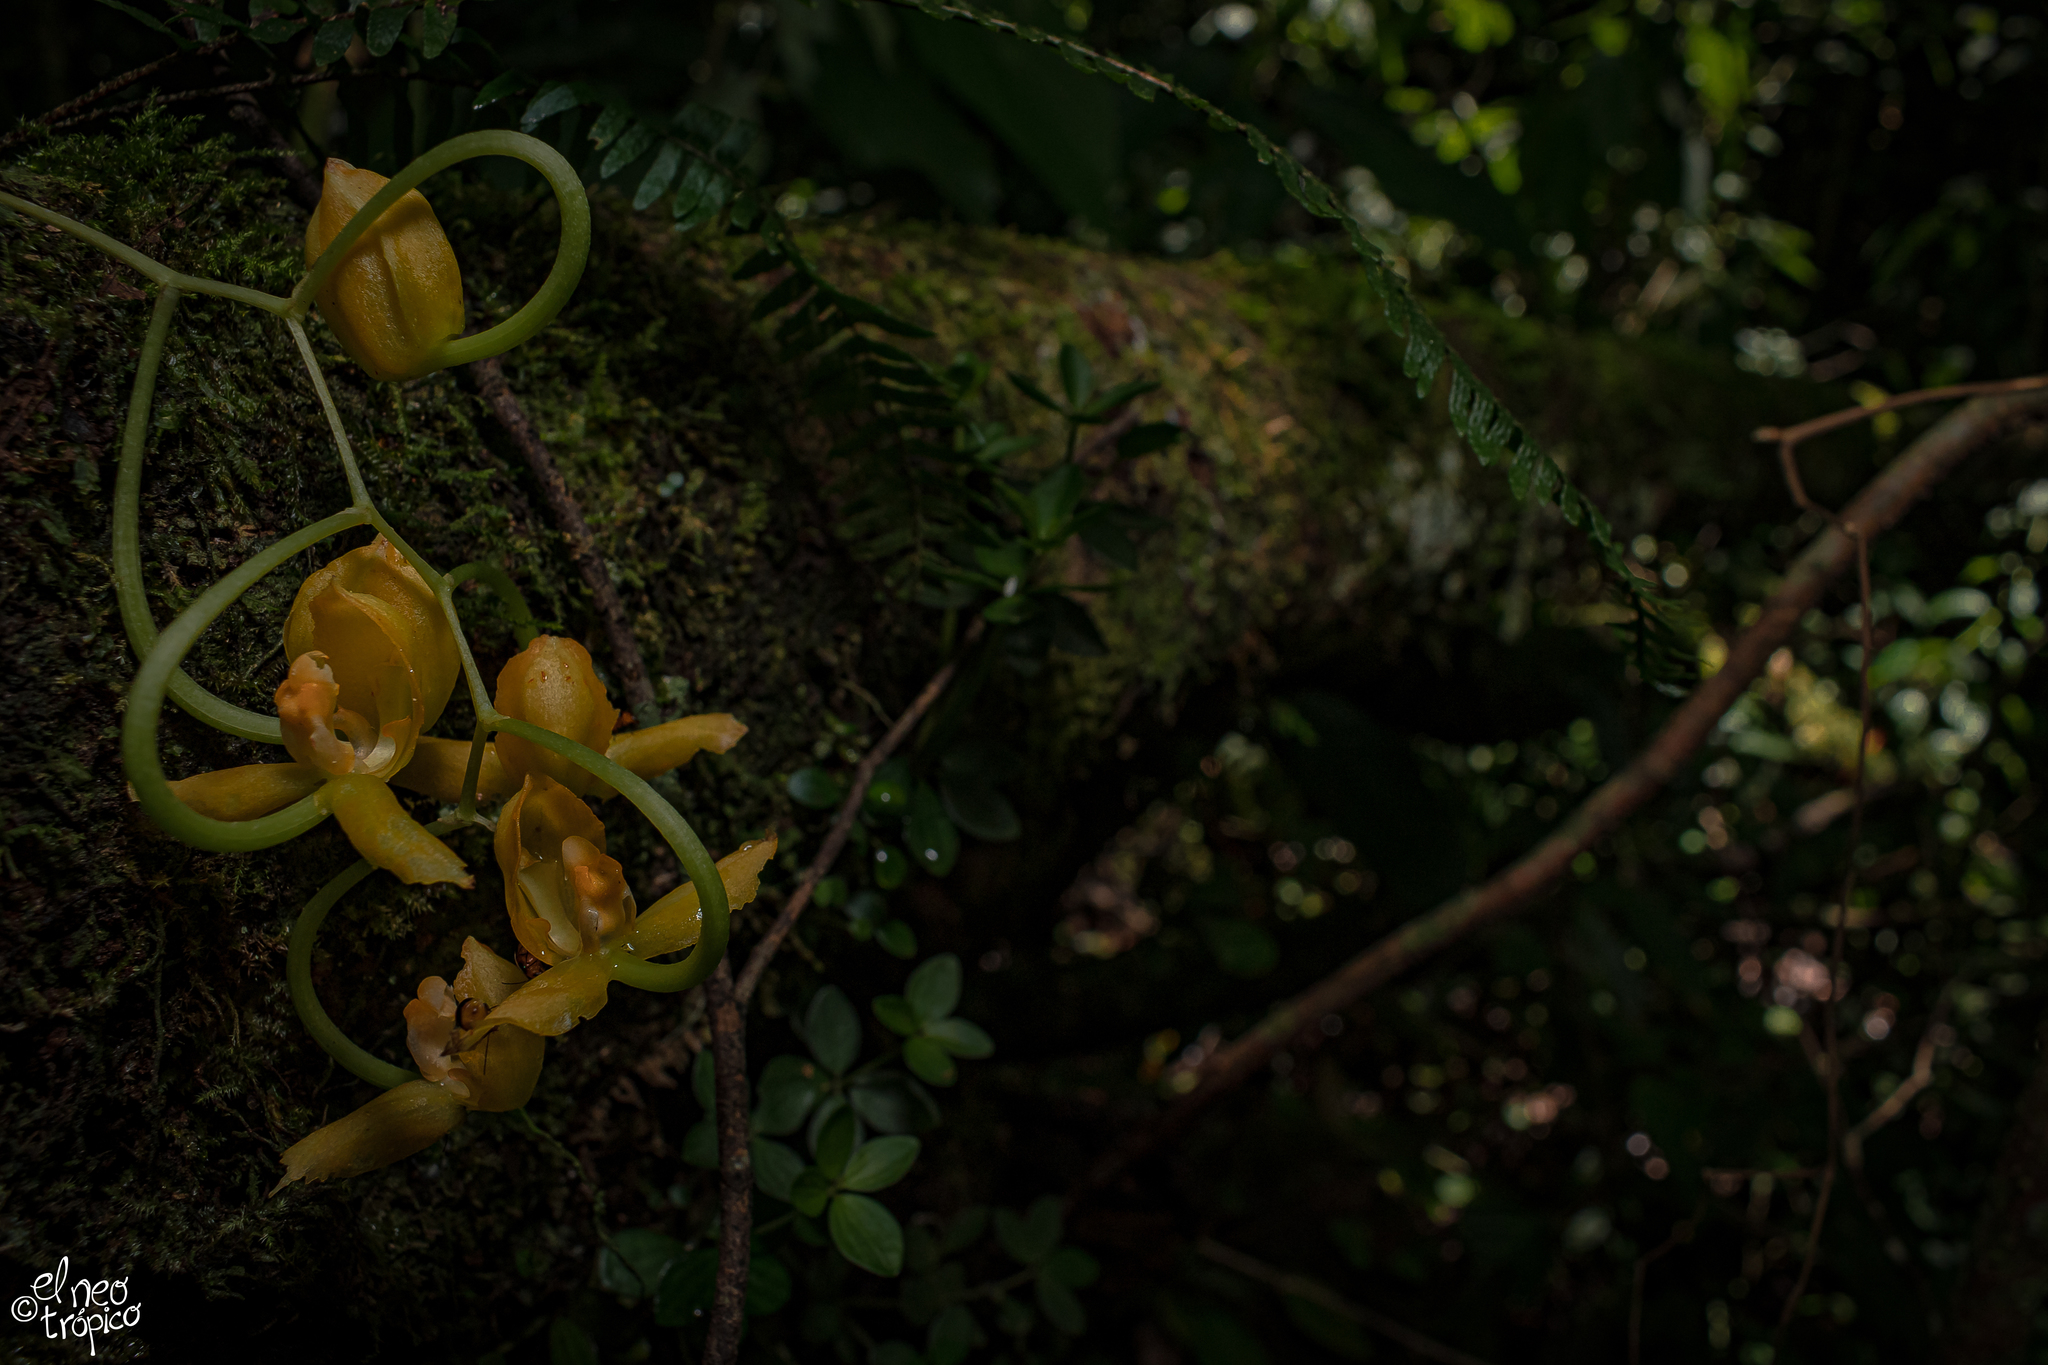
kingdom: Plantae
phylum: Tracheophyta
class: Liliopsida
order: Asparagales
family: Orchidaceae
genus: Gongora
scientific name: Gongora galeata
